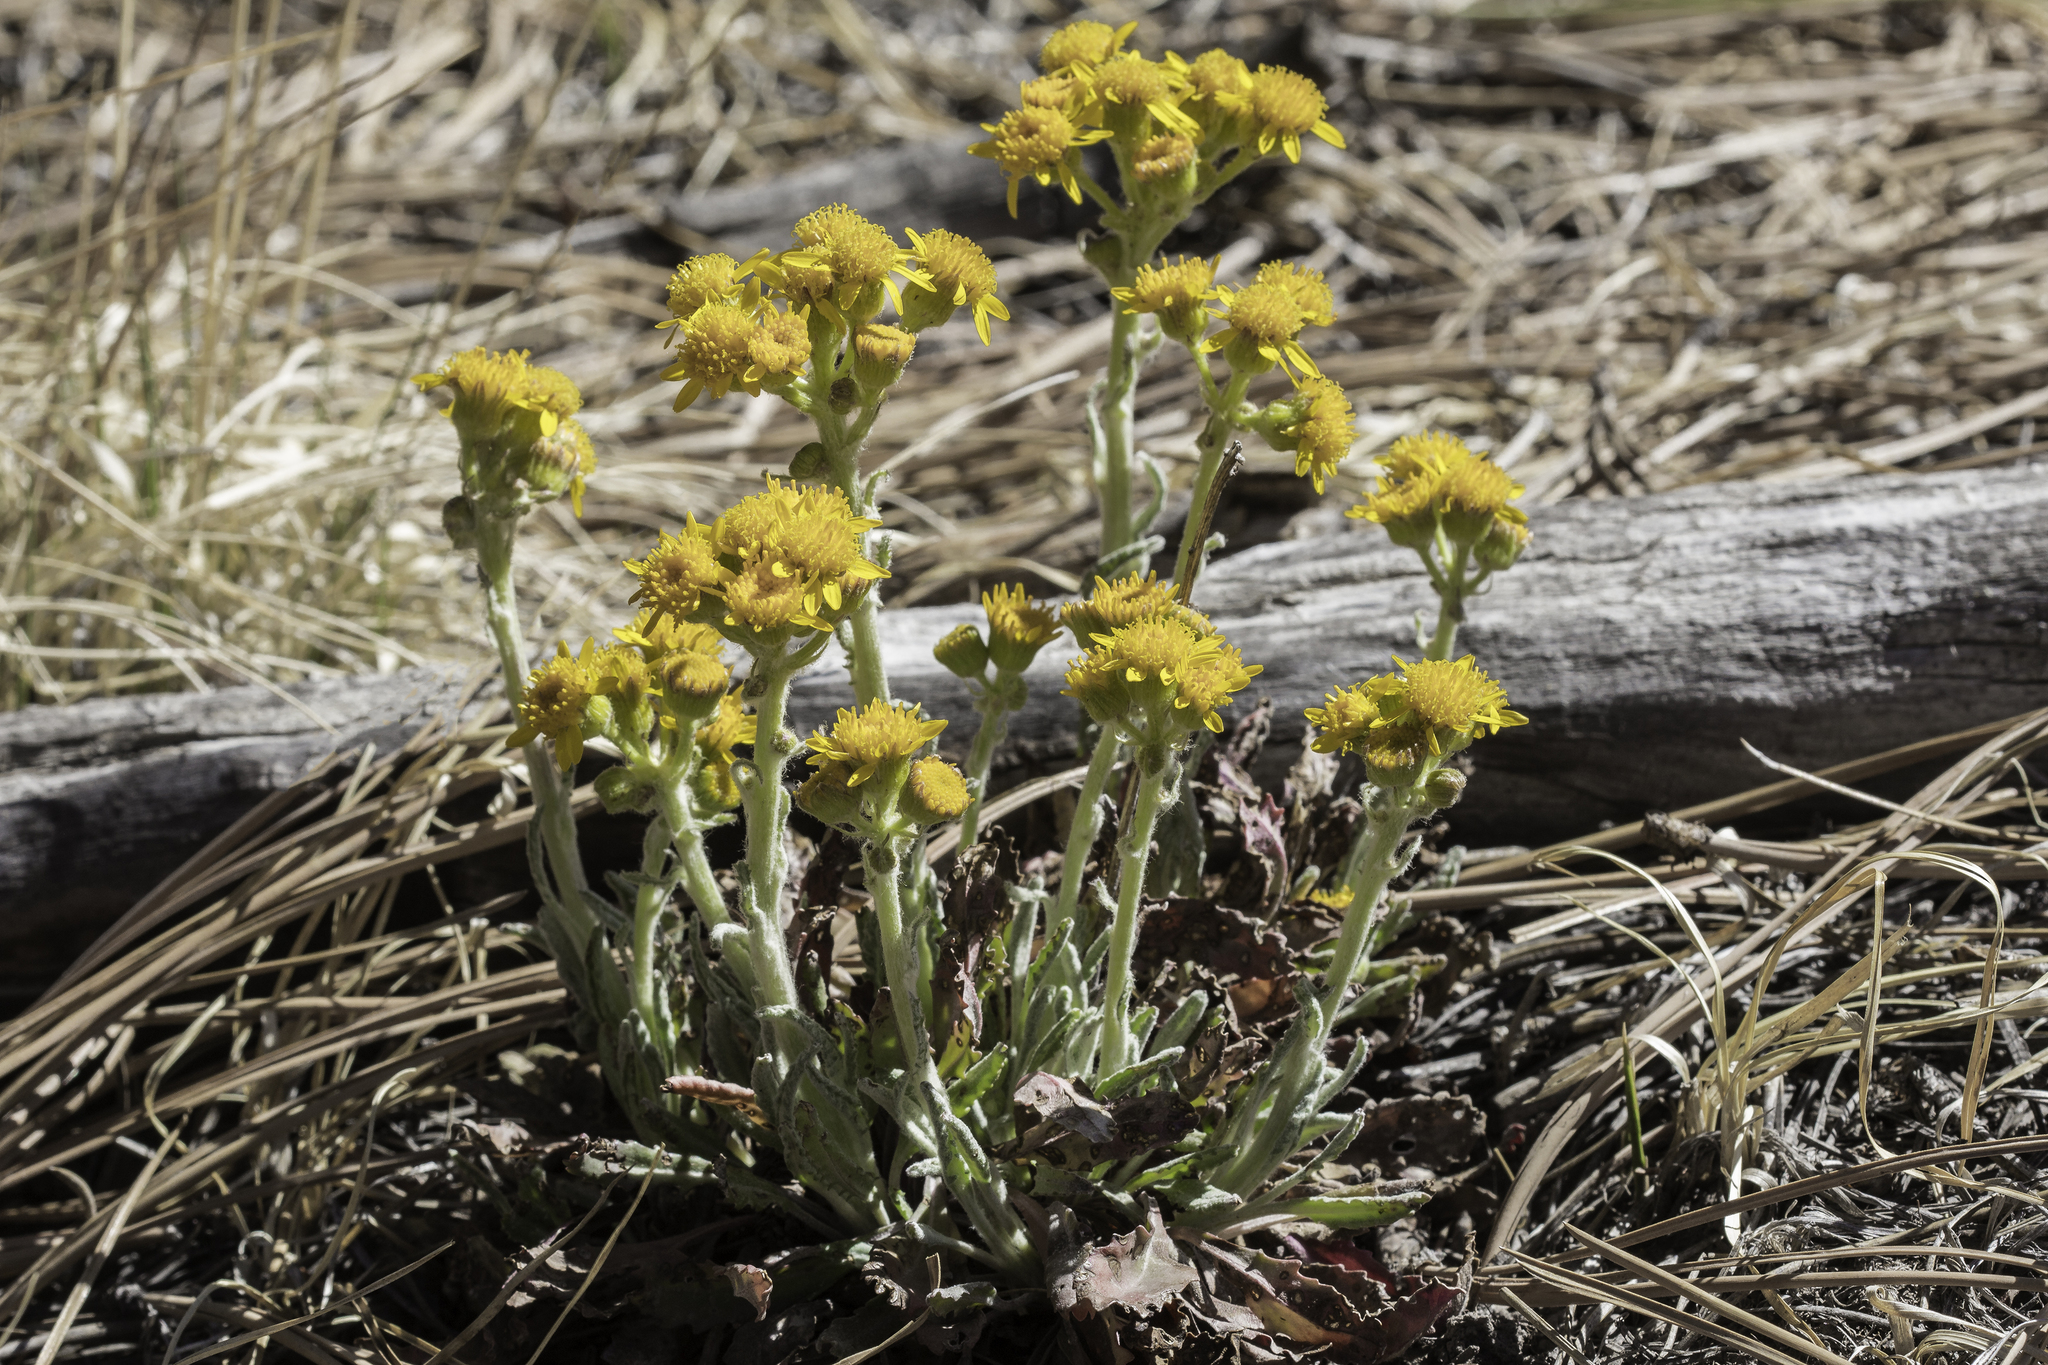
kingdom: Plantae
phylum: Tracheophyta
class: Magnoliopsida
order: Asterales
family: Asteraceae
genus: Packera
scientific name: Packera neomexicana
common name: New mexico butterweed
